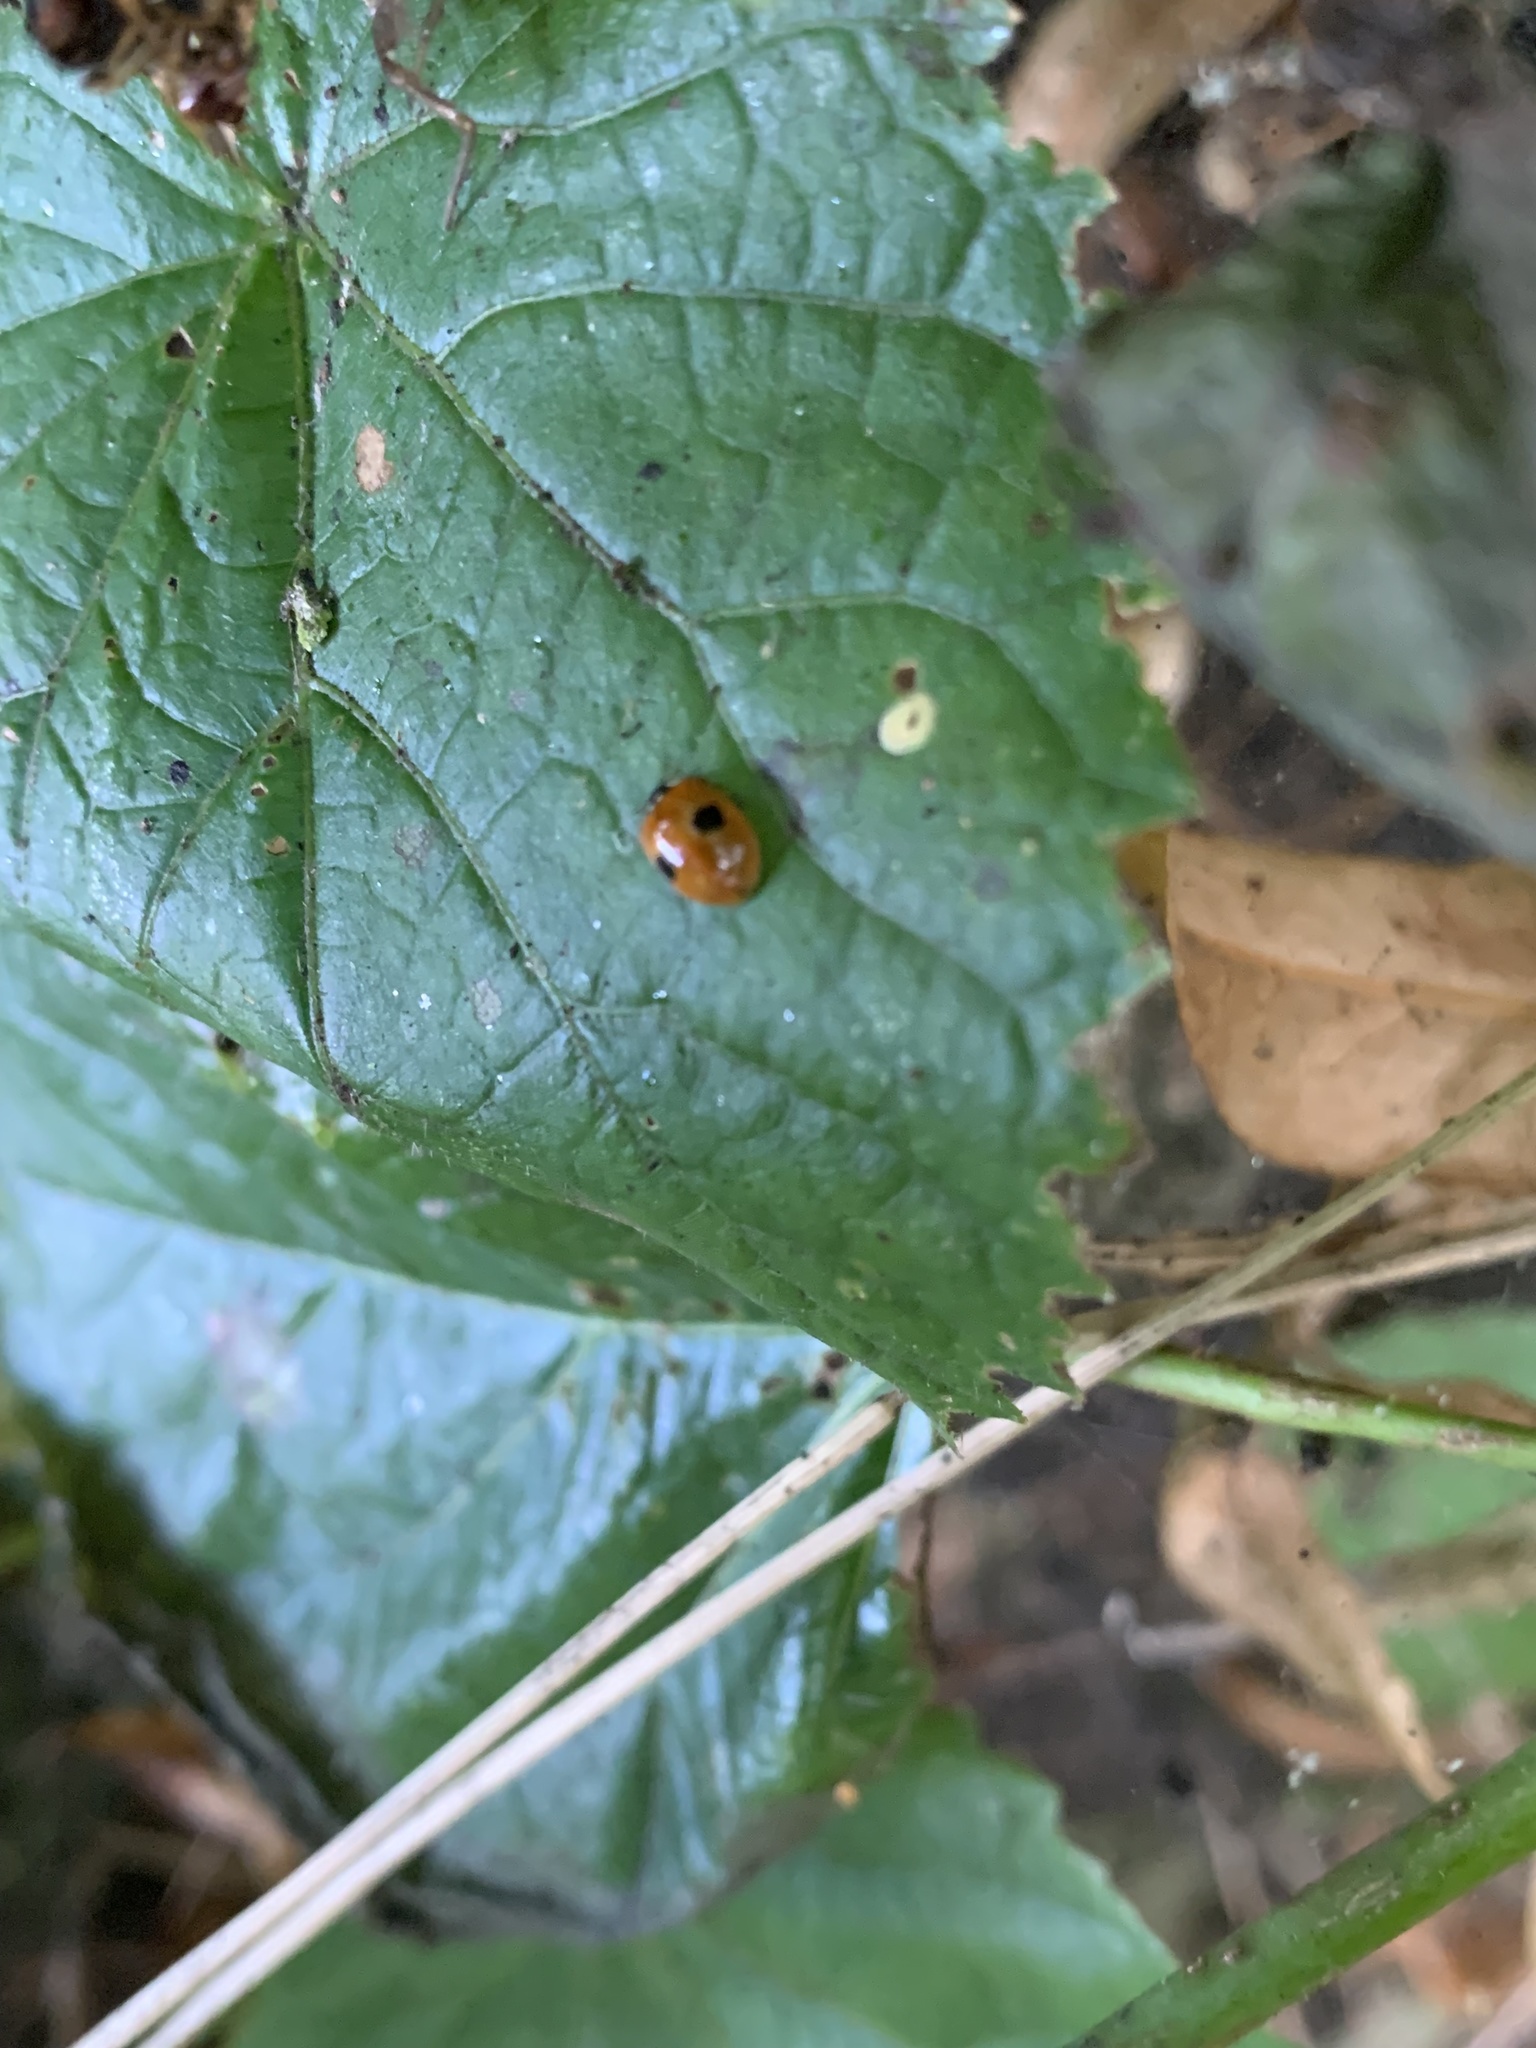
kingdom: Animalia
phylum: Arthropoda
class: Insecta
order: Coleoptera
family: Coccinellidae
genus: Adalia
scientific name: Adalia bipunctata
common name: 2-spot ladybird
